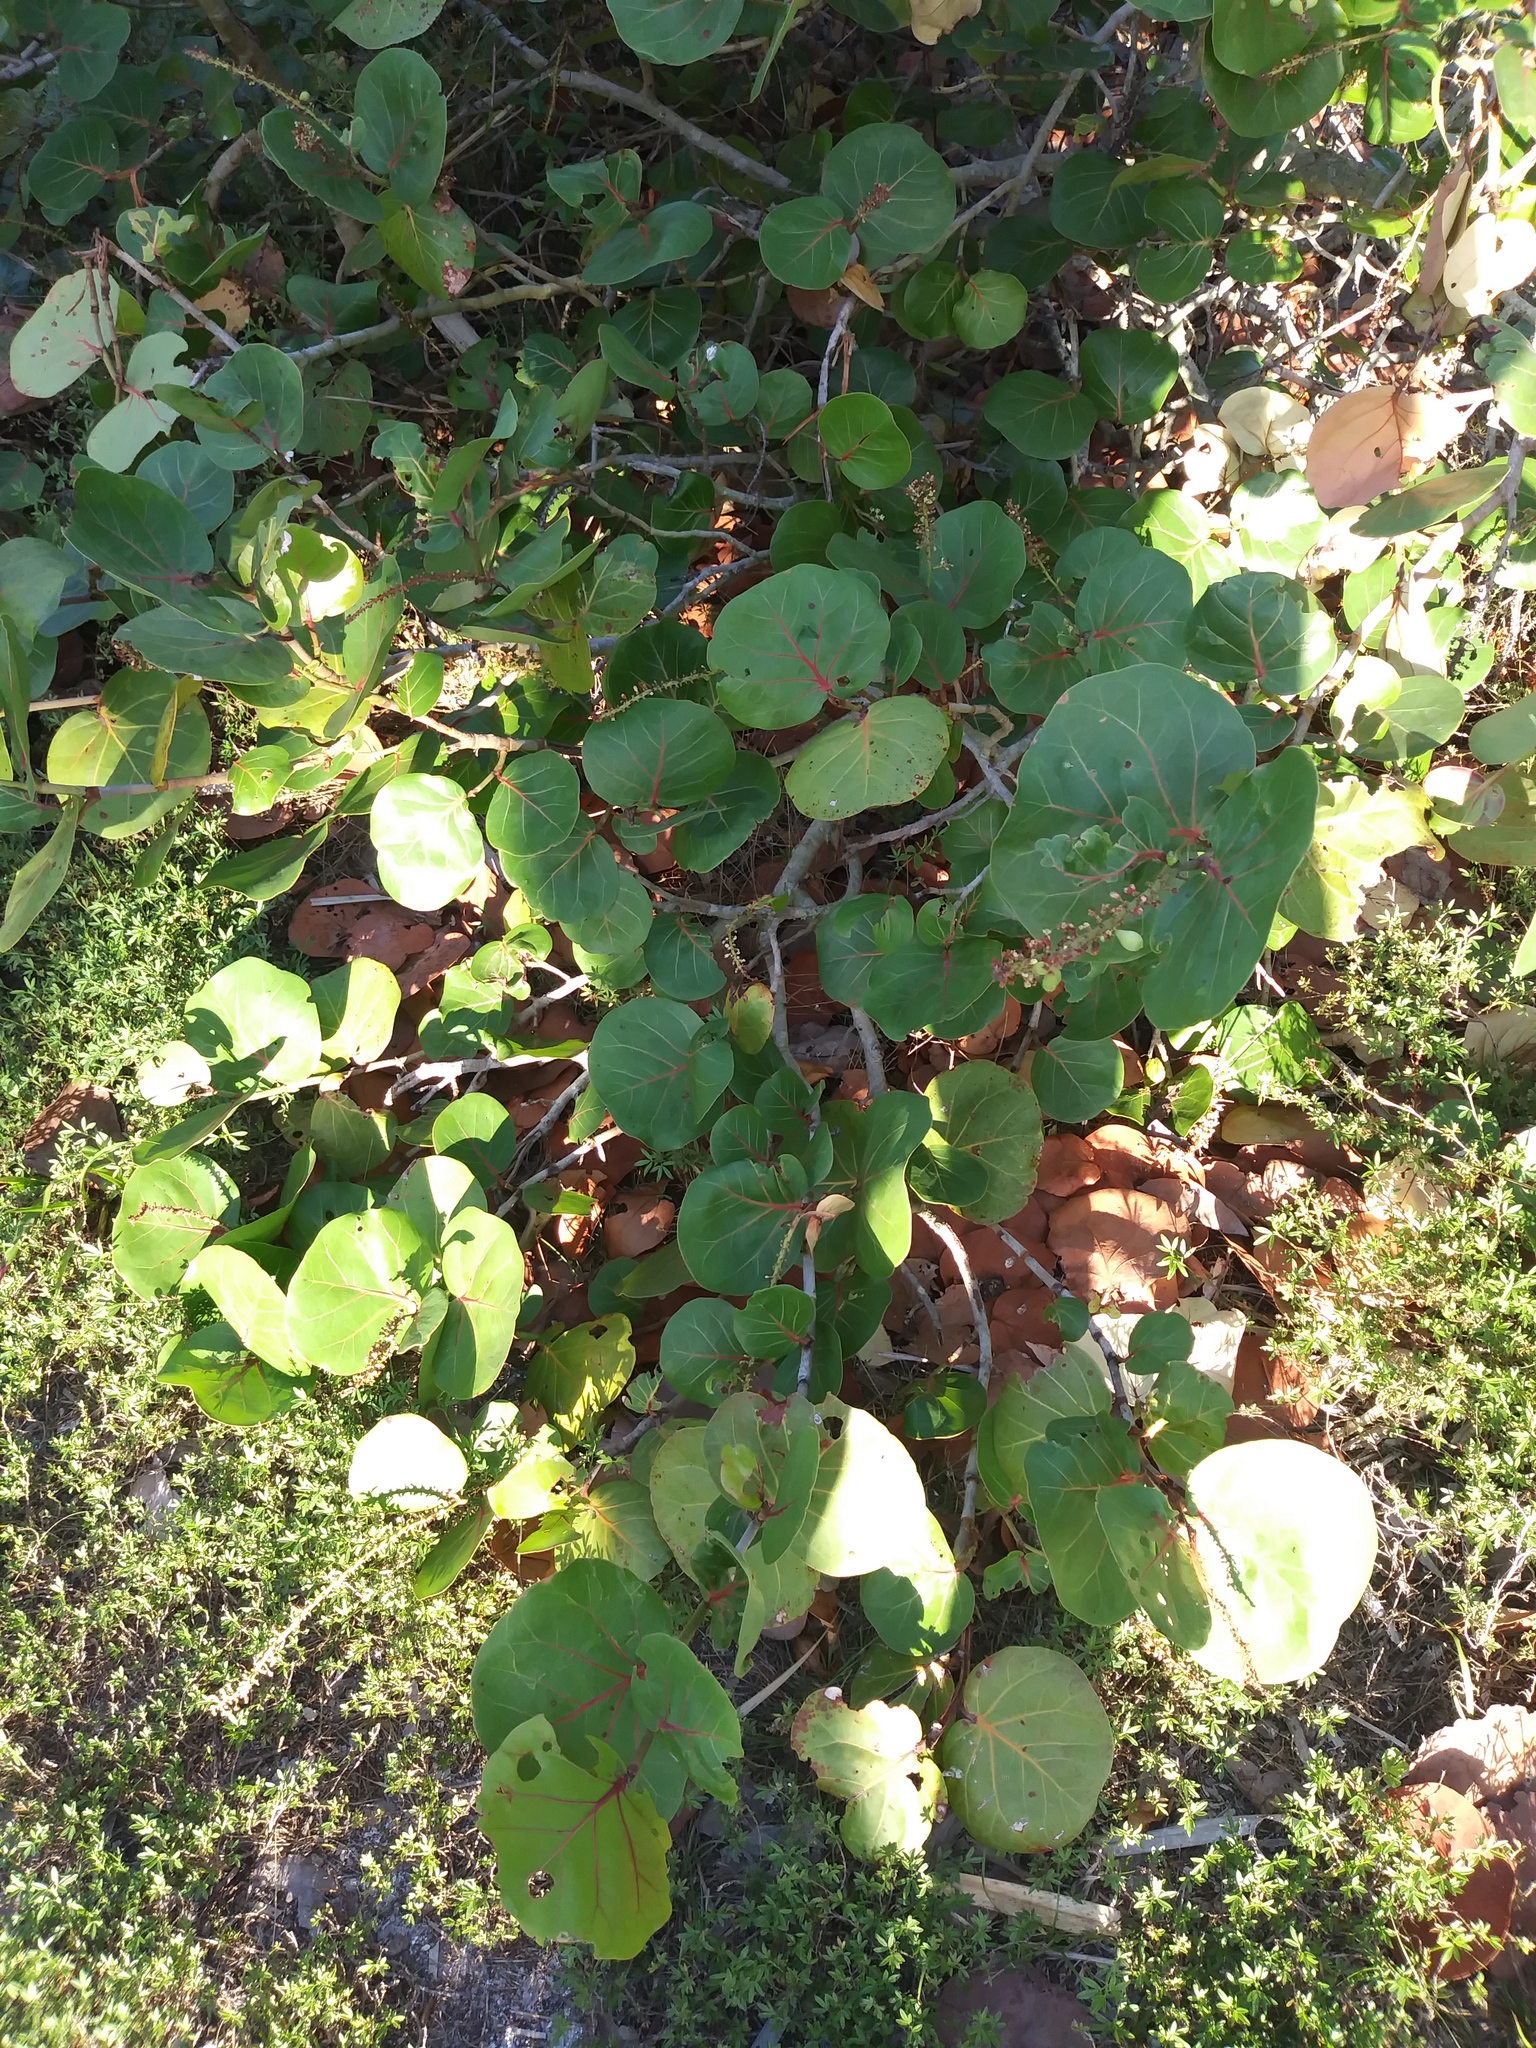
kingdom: Plantae
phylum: Tracheophyta
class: Magnoliopsida
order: Caryophyllales
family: Polygonaceae
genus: Coccoloba
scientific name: Coccoloba uvifera
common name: Seagrape
